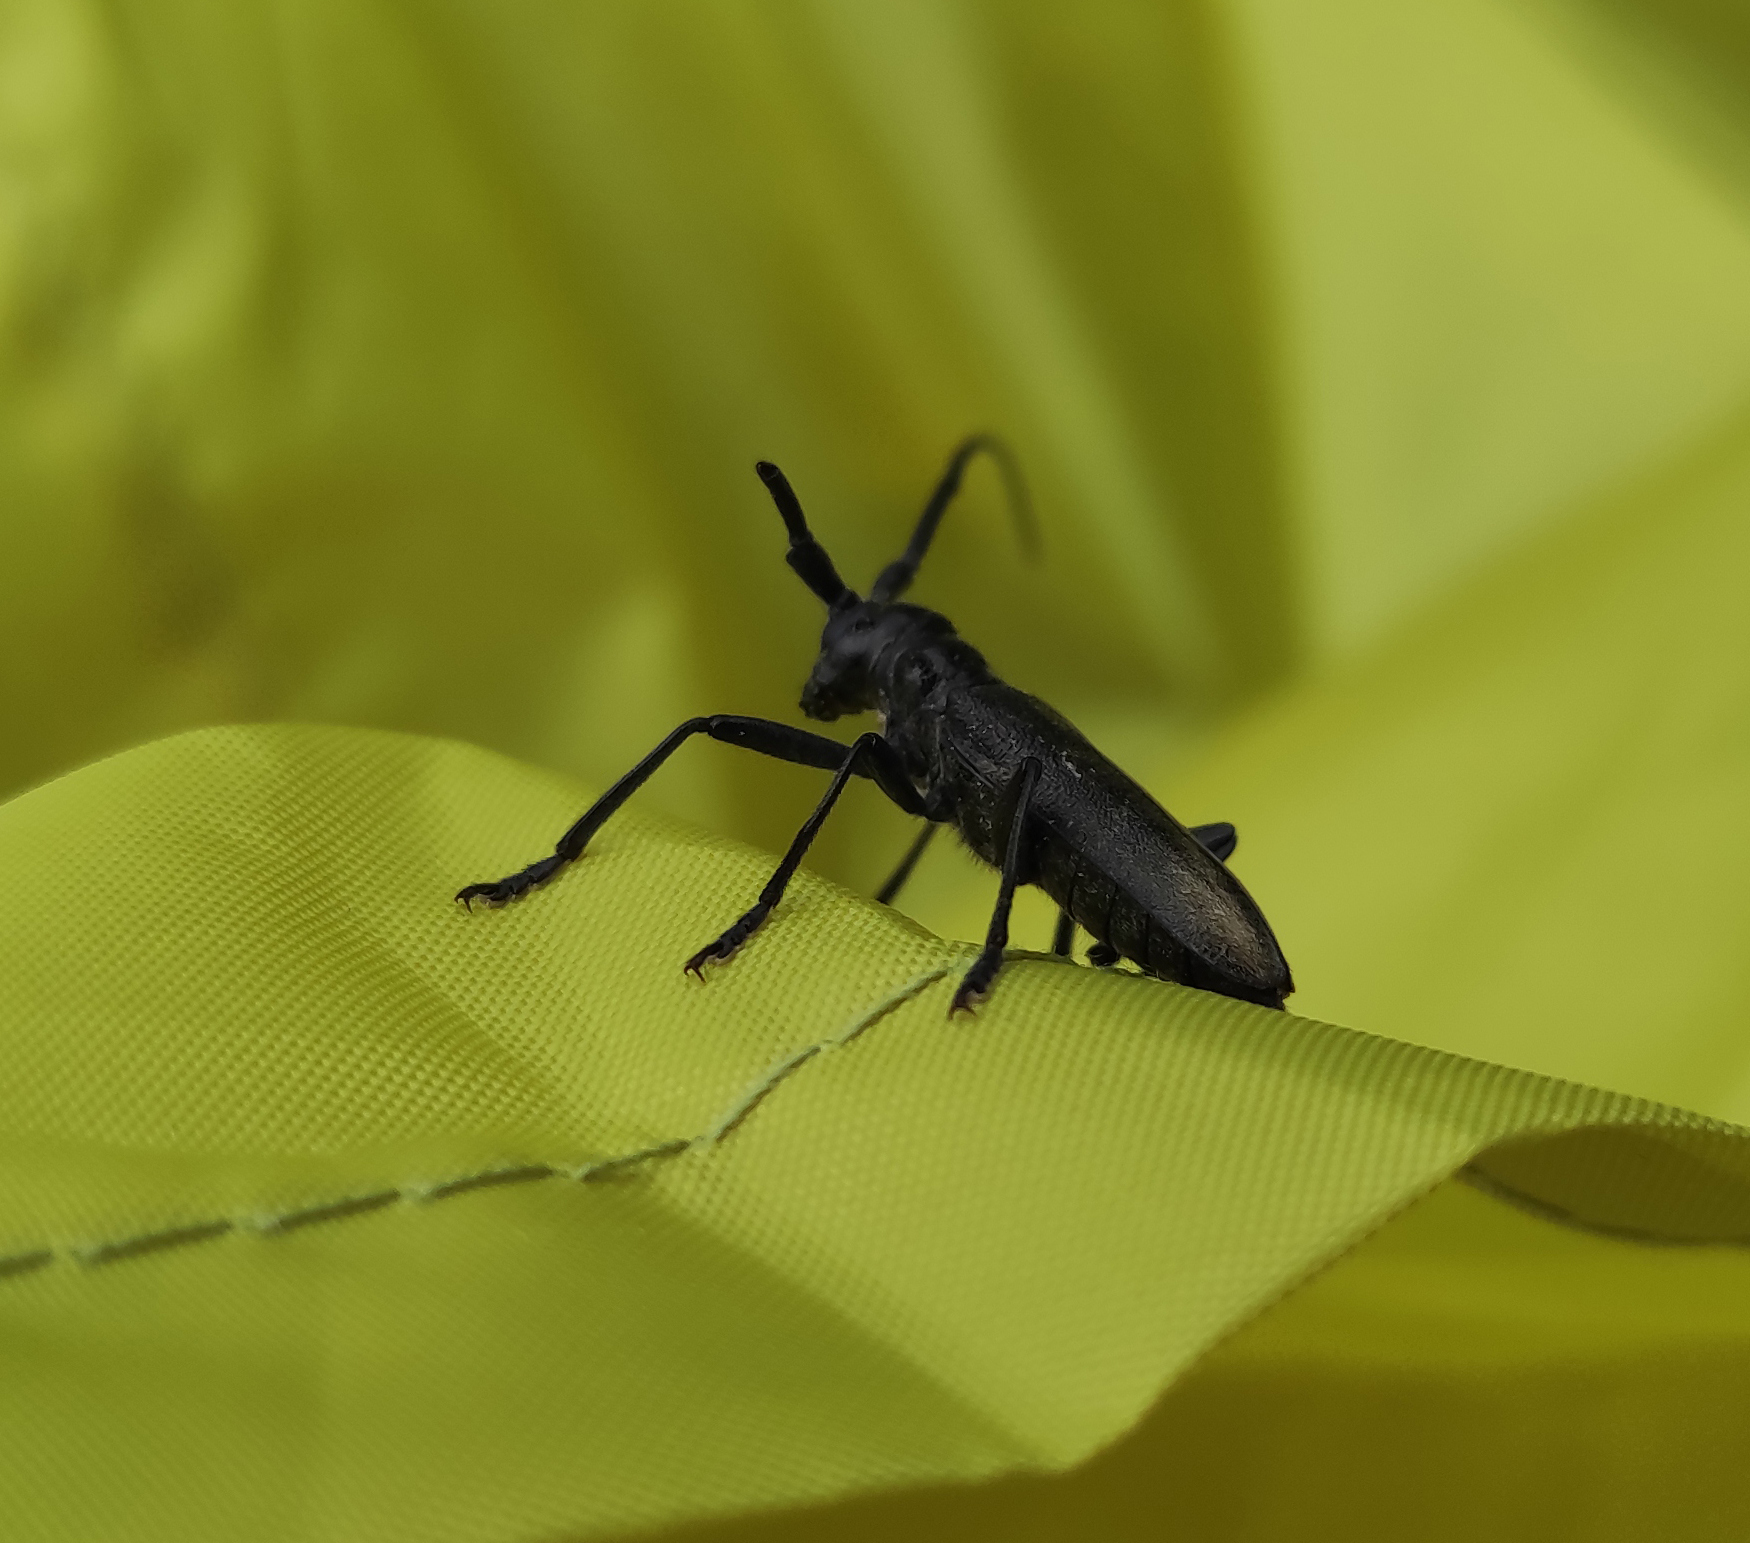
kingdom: Animalia
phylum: Arthropoda
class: Insecta
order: Coleoptera
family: Cerambycidae
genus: Monochamus
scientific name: Monochamus sartor
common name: Pine sawyer
